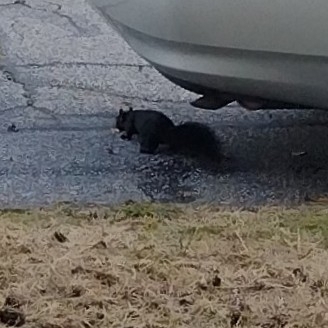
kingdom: Animalia
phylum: Chordata
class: Mammalia
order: Rodentia
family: Sciuridae
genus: Sciurus
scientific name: Sciurus carolinensis
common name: Eastern gray squirrel
